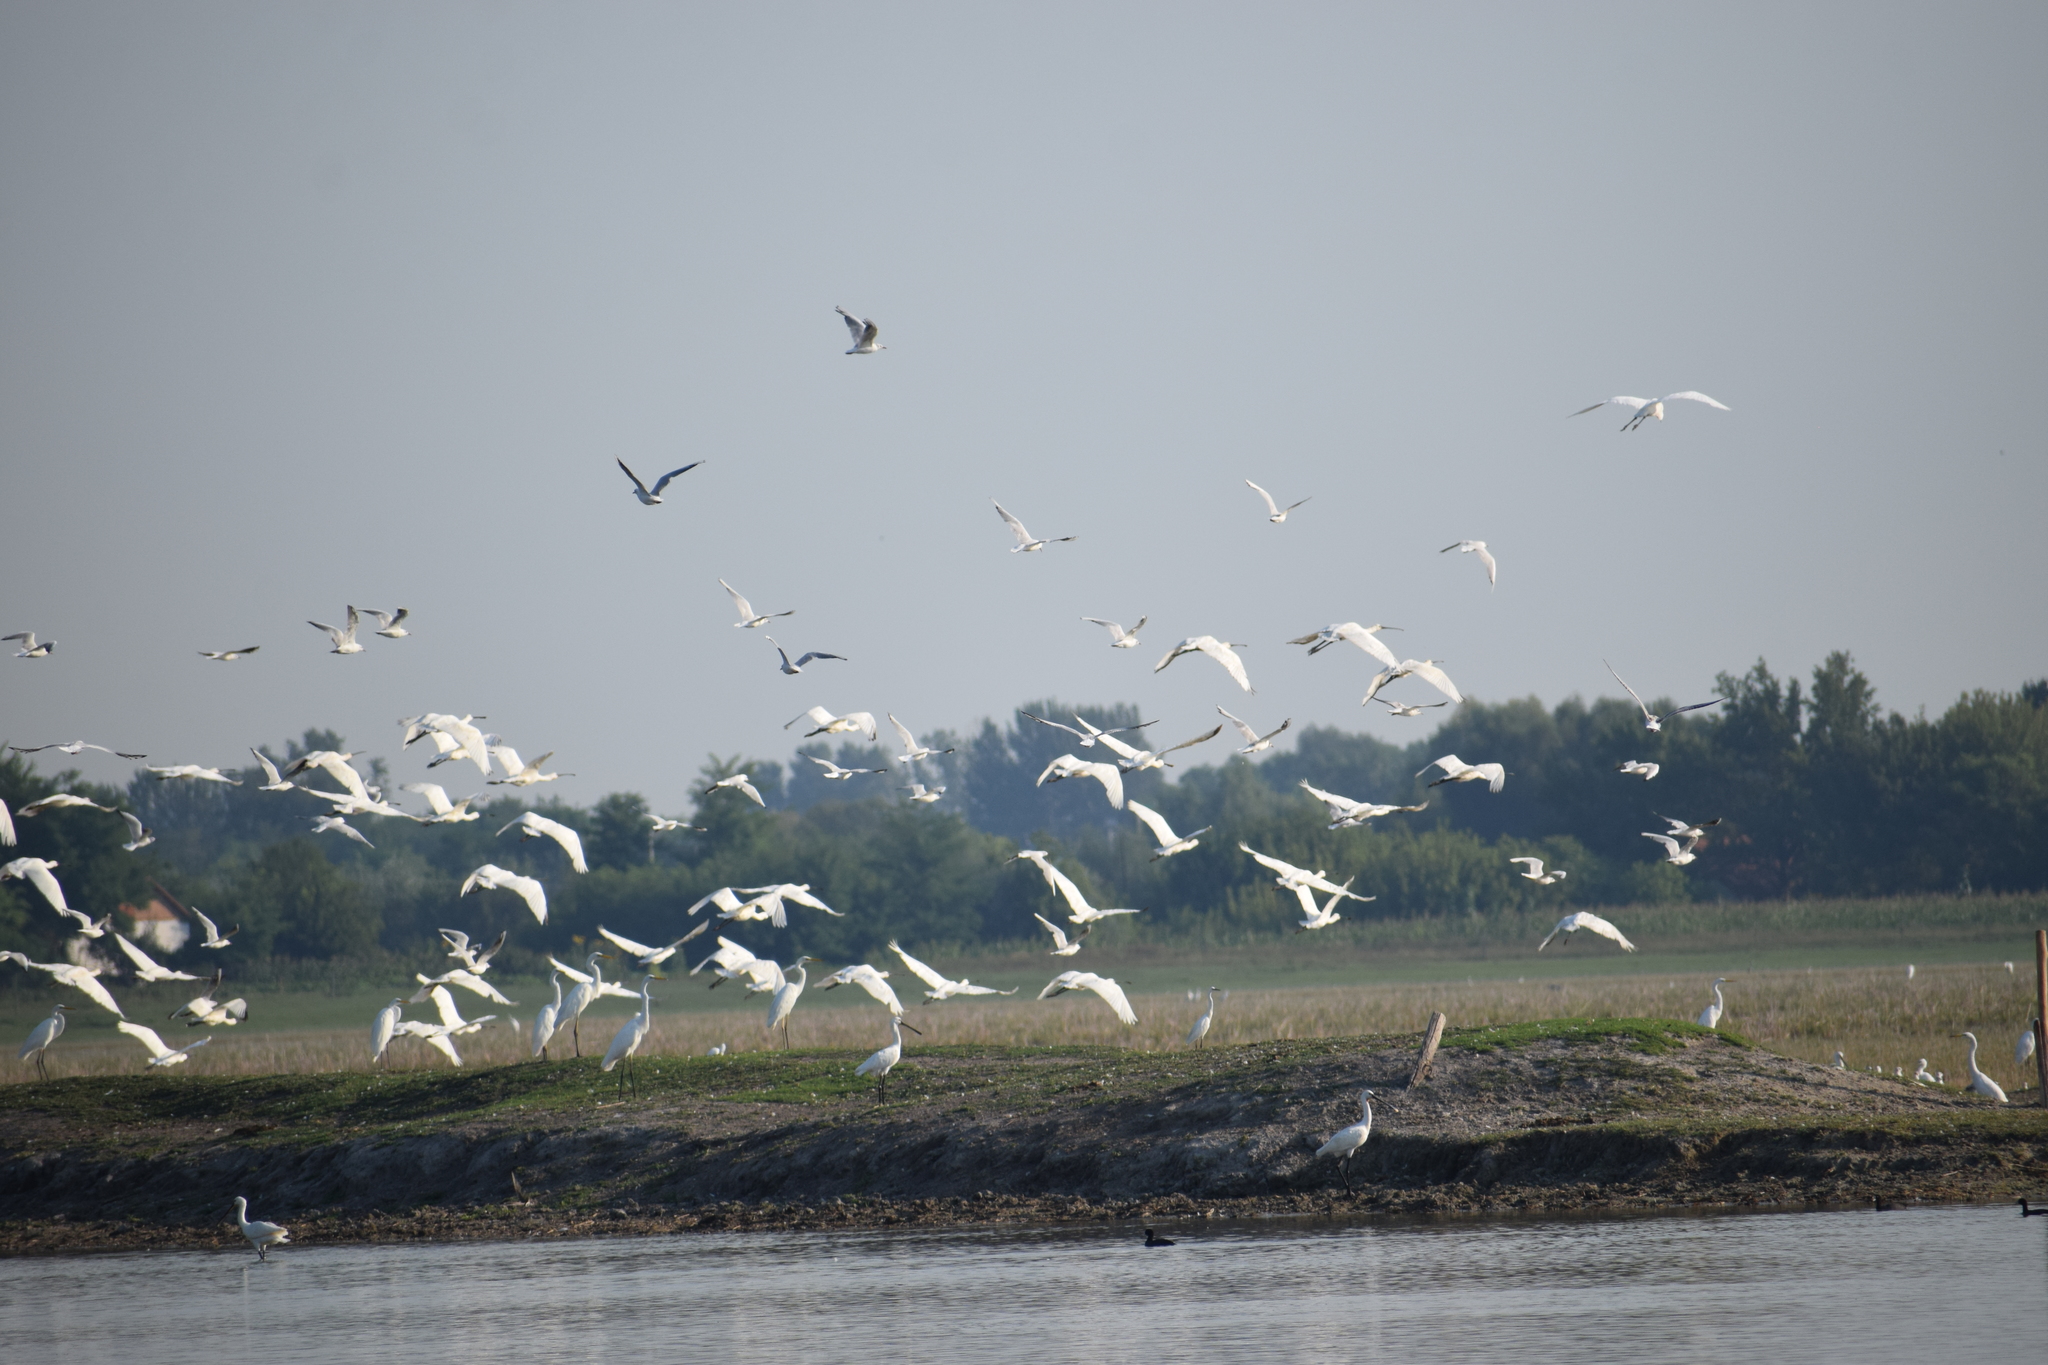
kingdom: Animalia
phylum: Chordata
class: Aves
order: Pelecaniformes
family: Threskiornithidae
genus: Platalea
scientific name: Platalea leucorodia
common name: Eurasian spoonbill
